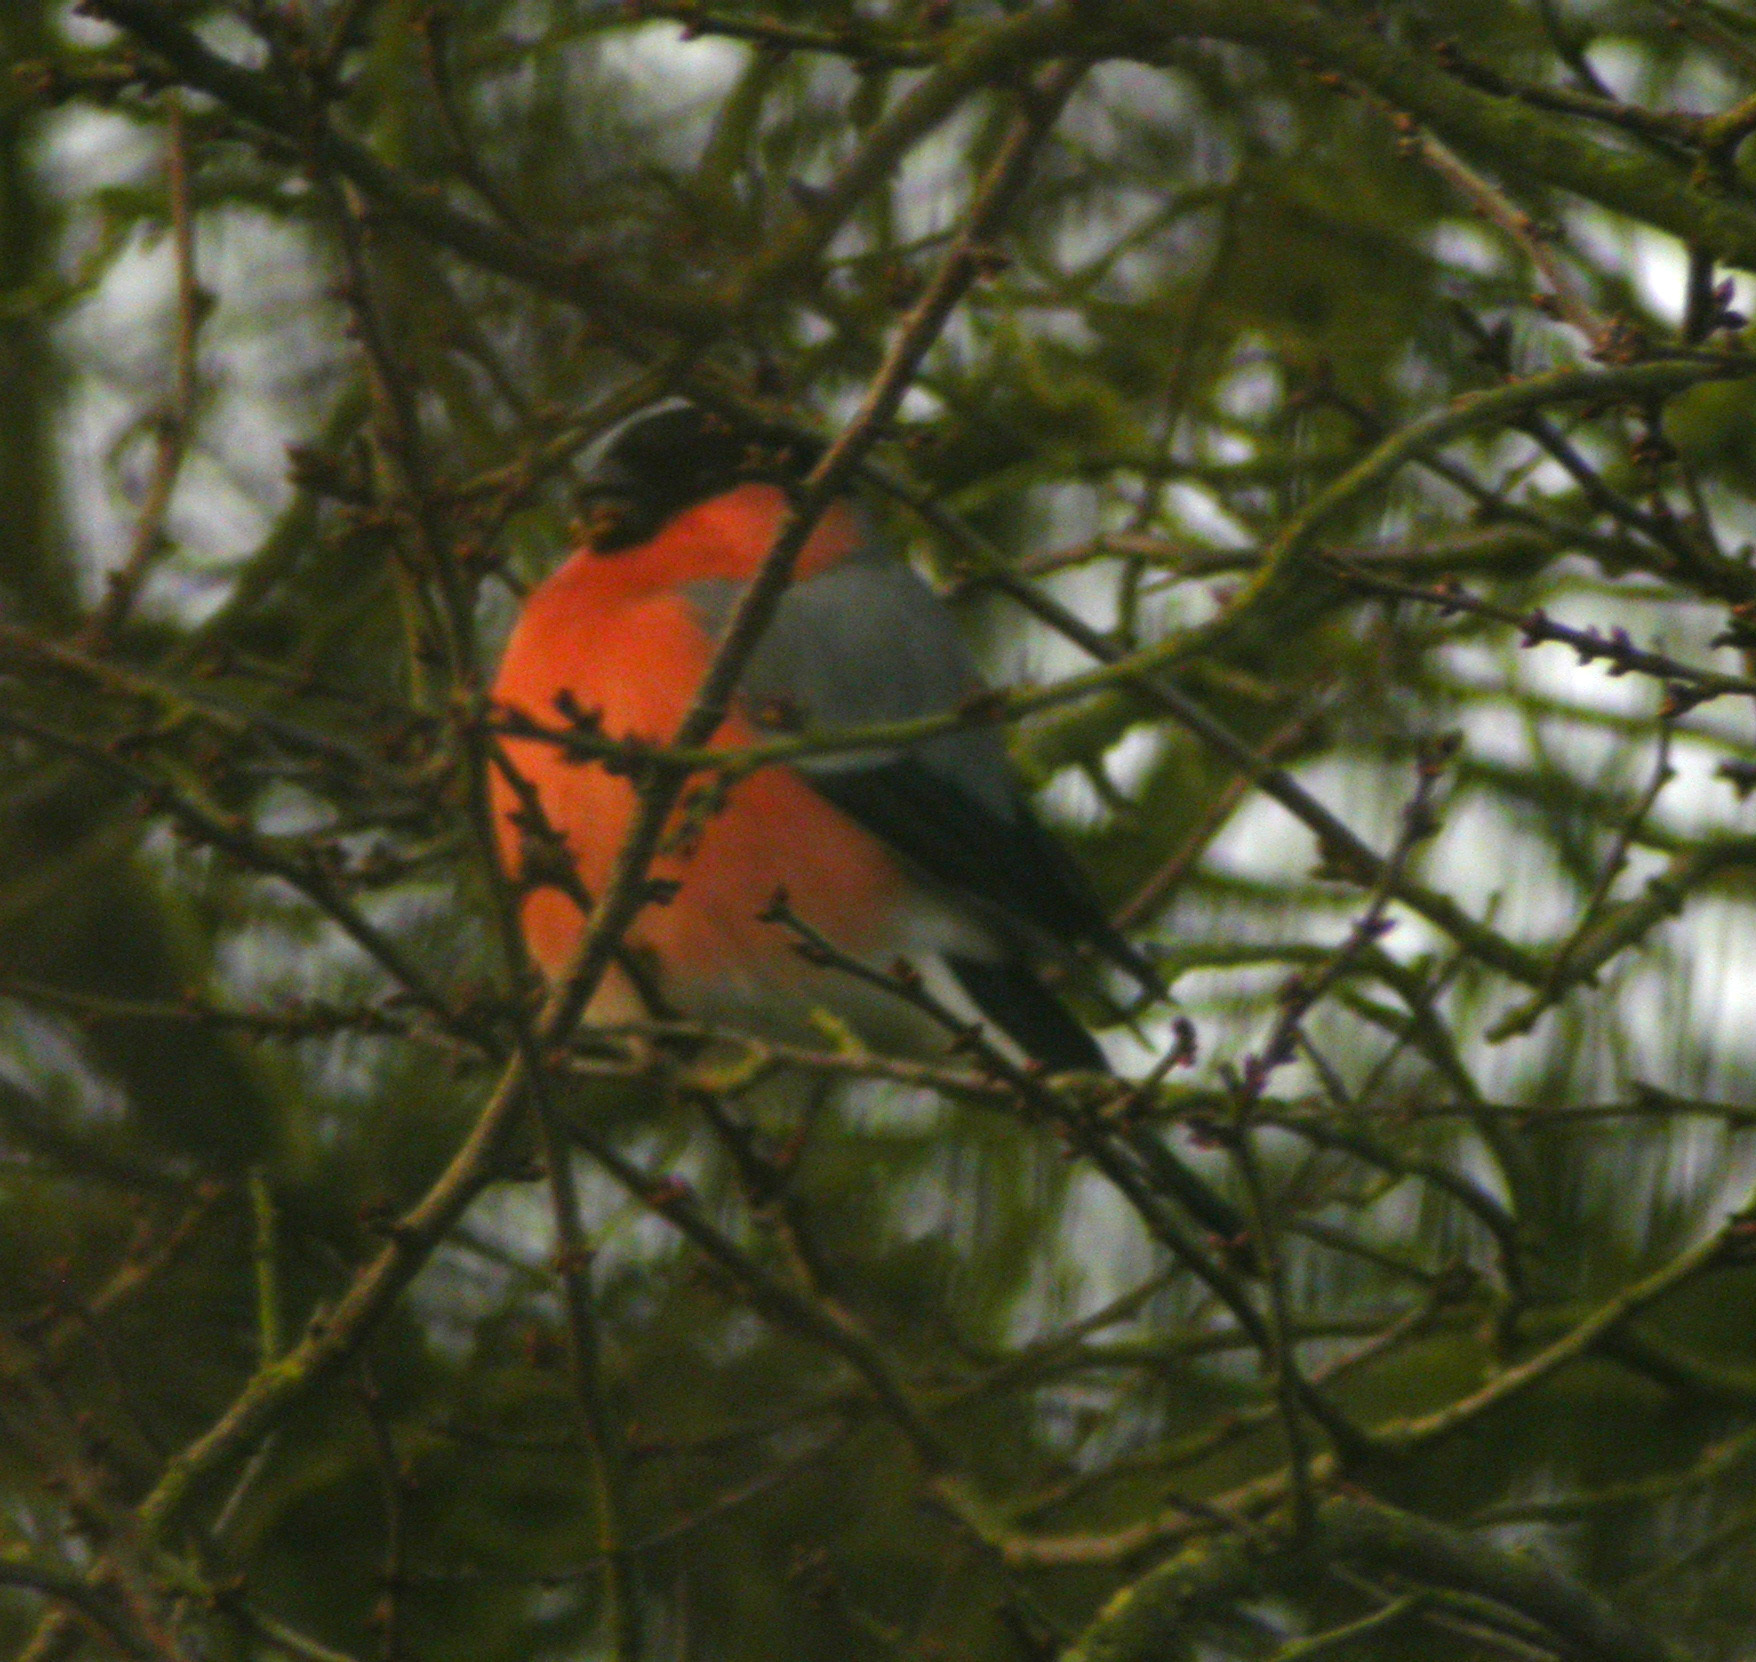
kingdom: Animalia
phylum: Chordata
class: Aves
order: Passeriformes
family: Fringillidae
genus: Pyrrhula
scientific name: Pyrrhula pyrrhula
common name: Eurasian bullfinch
